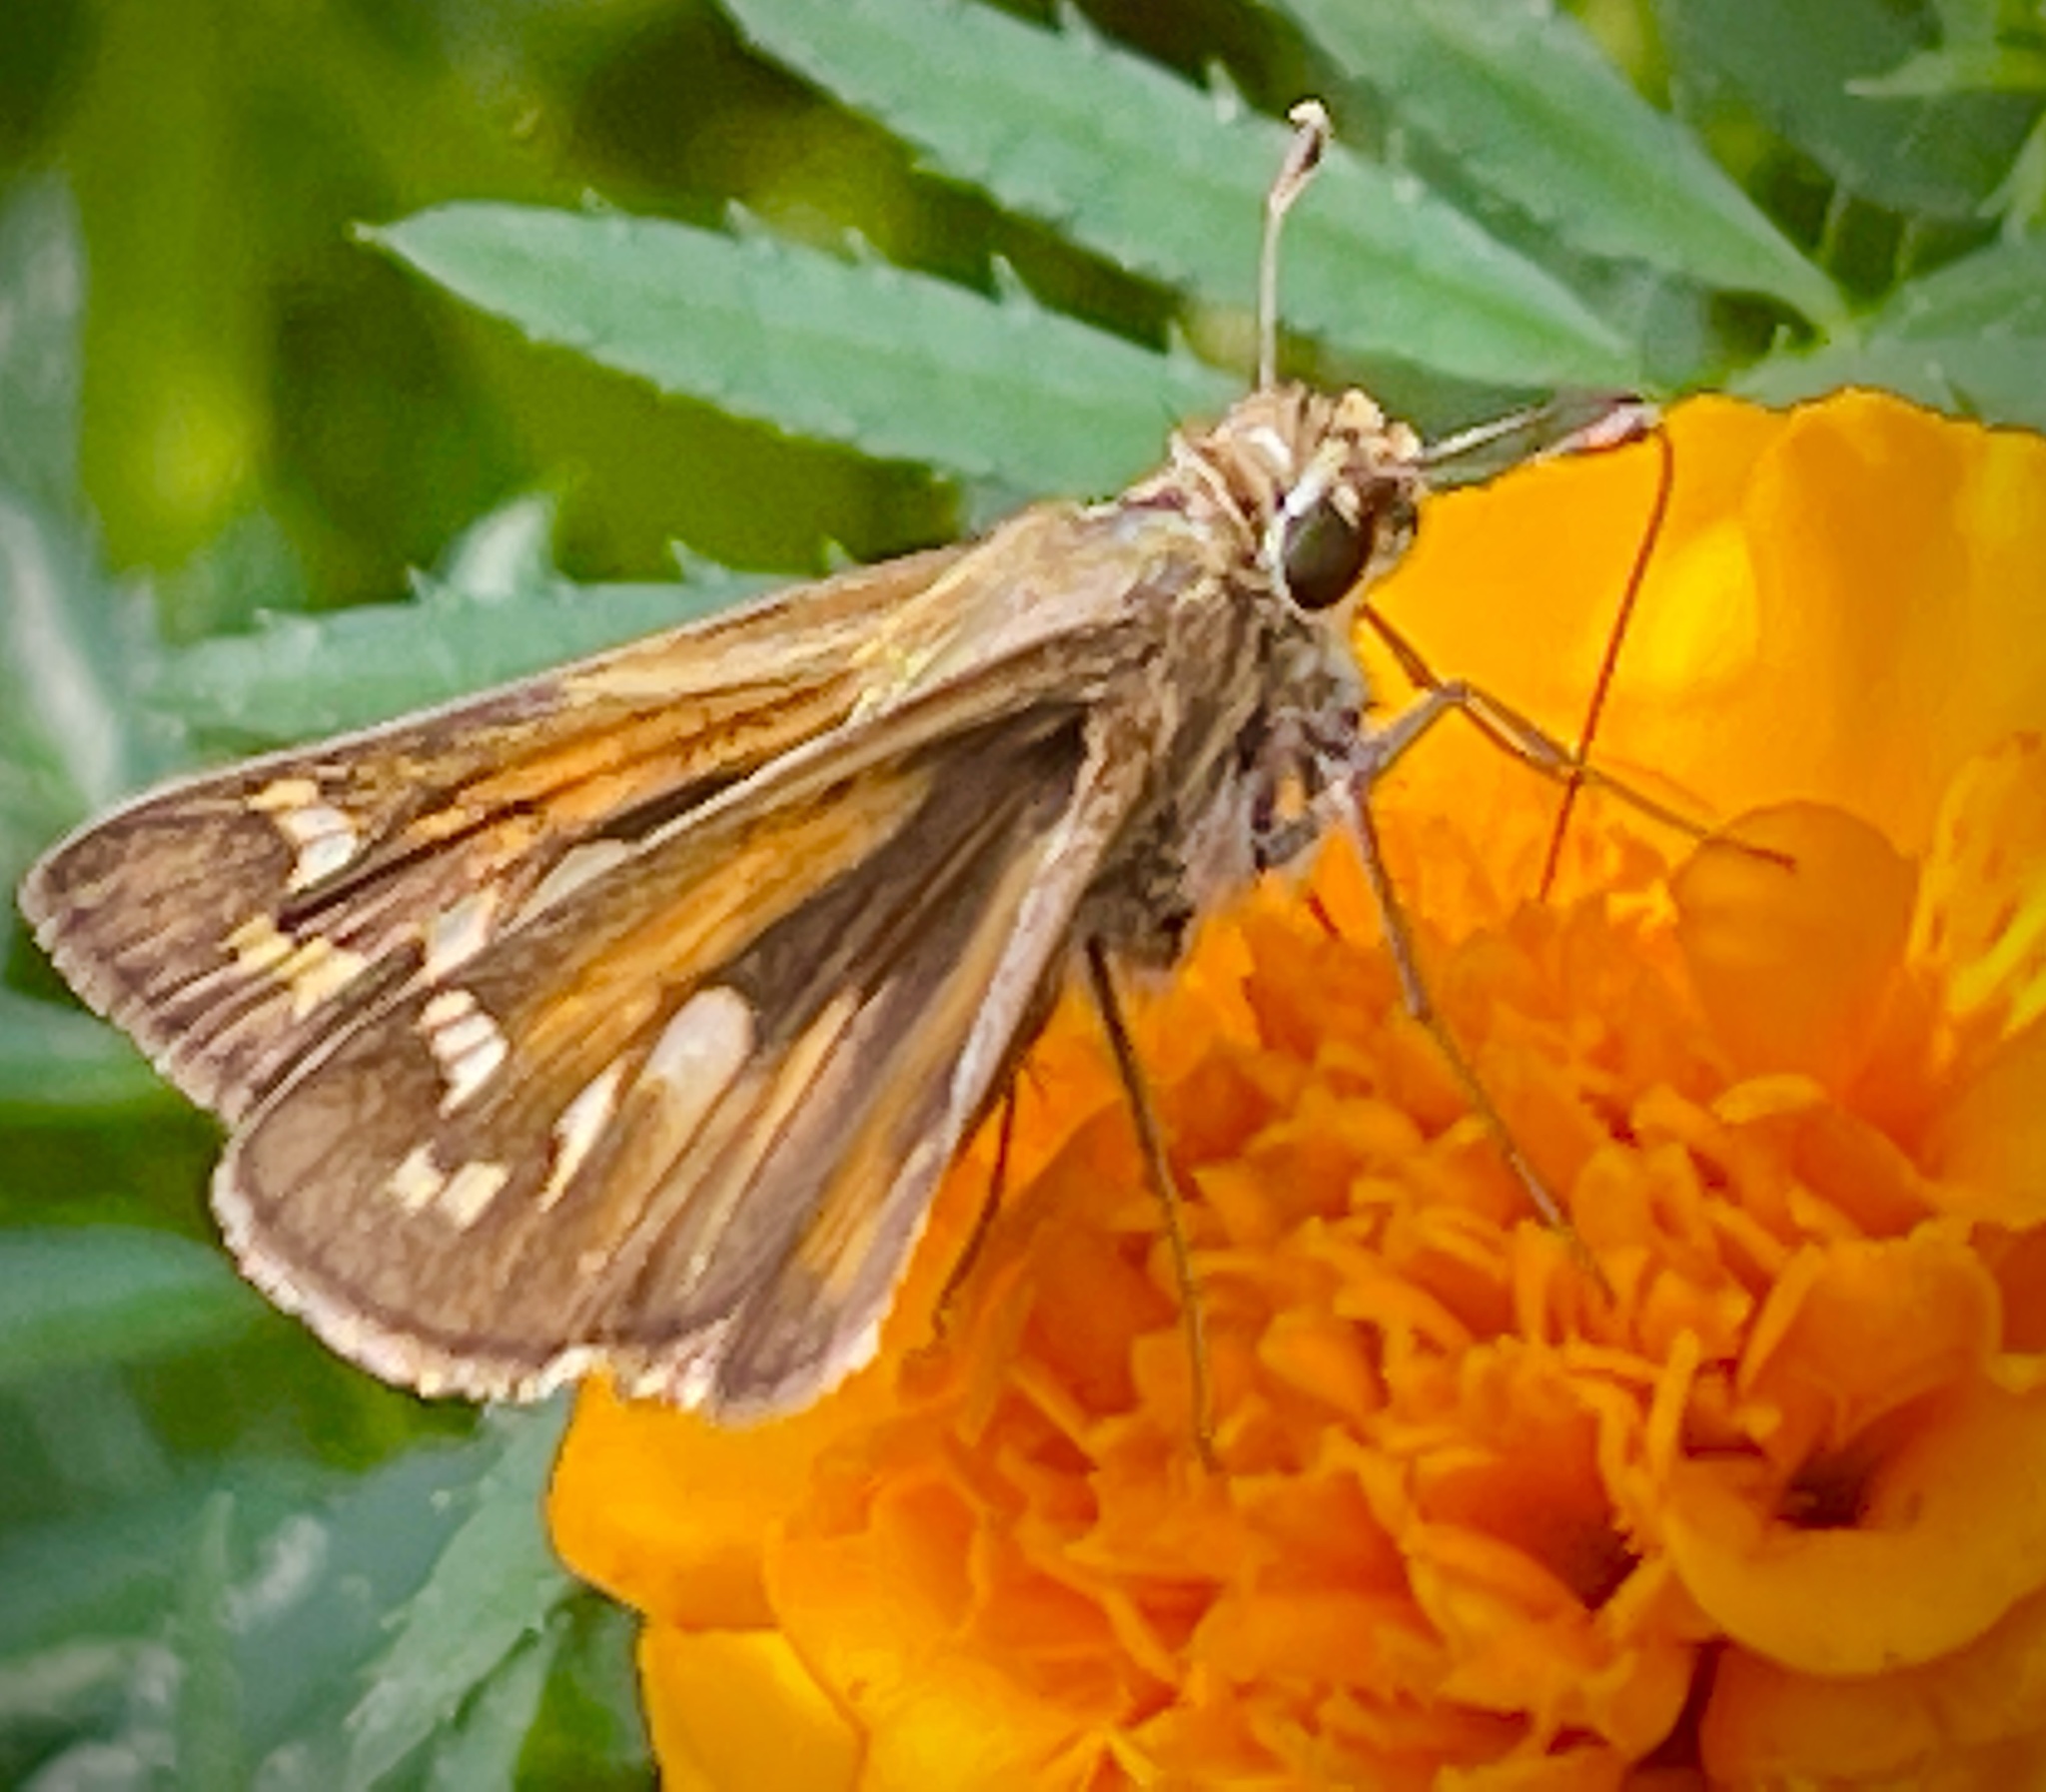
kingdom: Animalia
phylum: Arthropoda
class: Insecta
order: Lepidoptera
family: Hesperiidae
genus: Atalopedes
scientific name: Atalopedes
